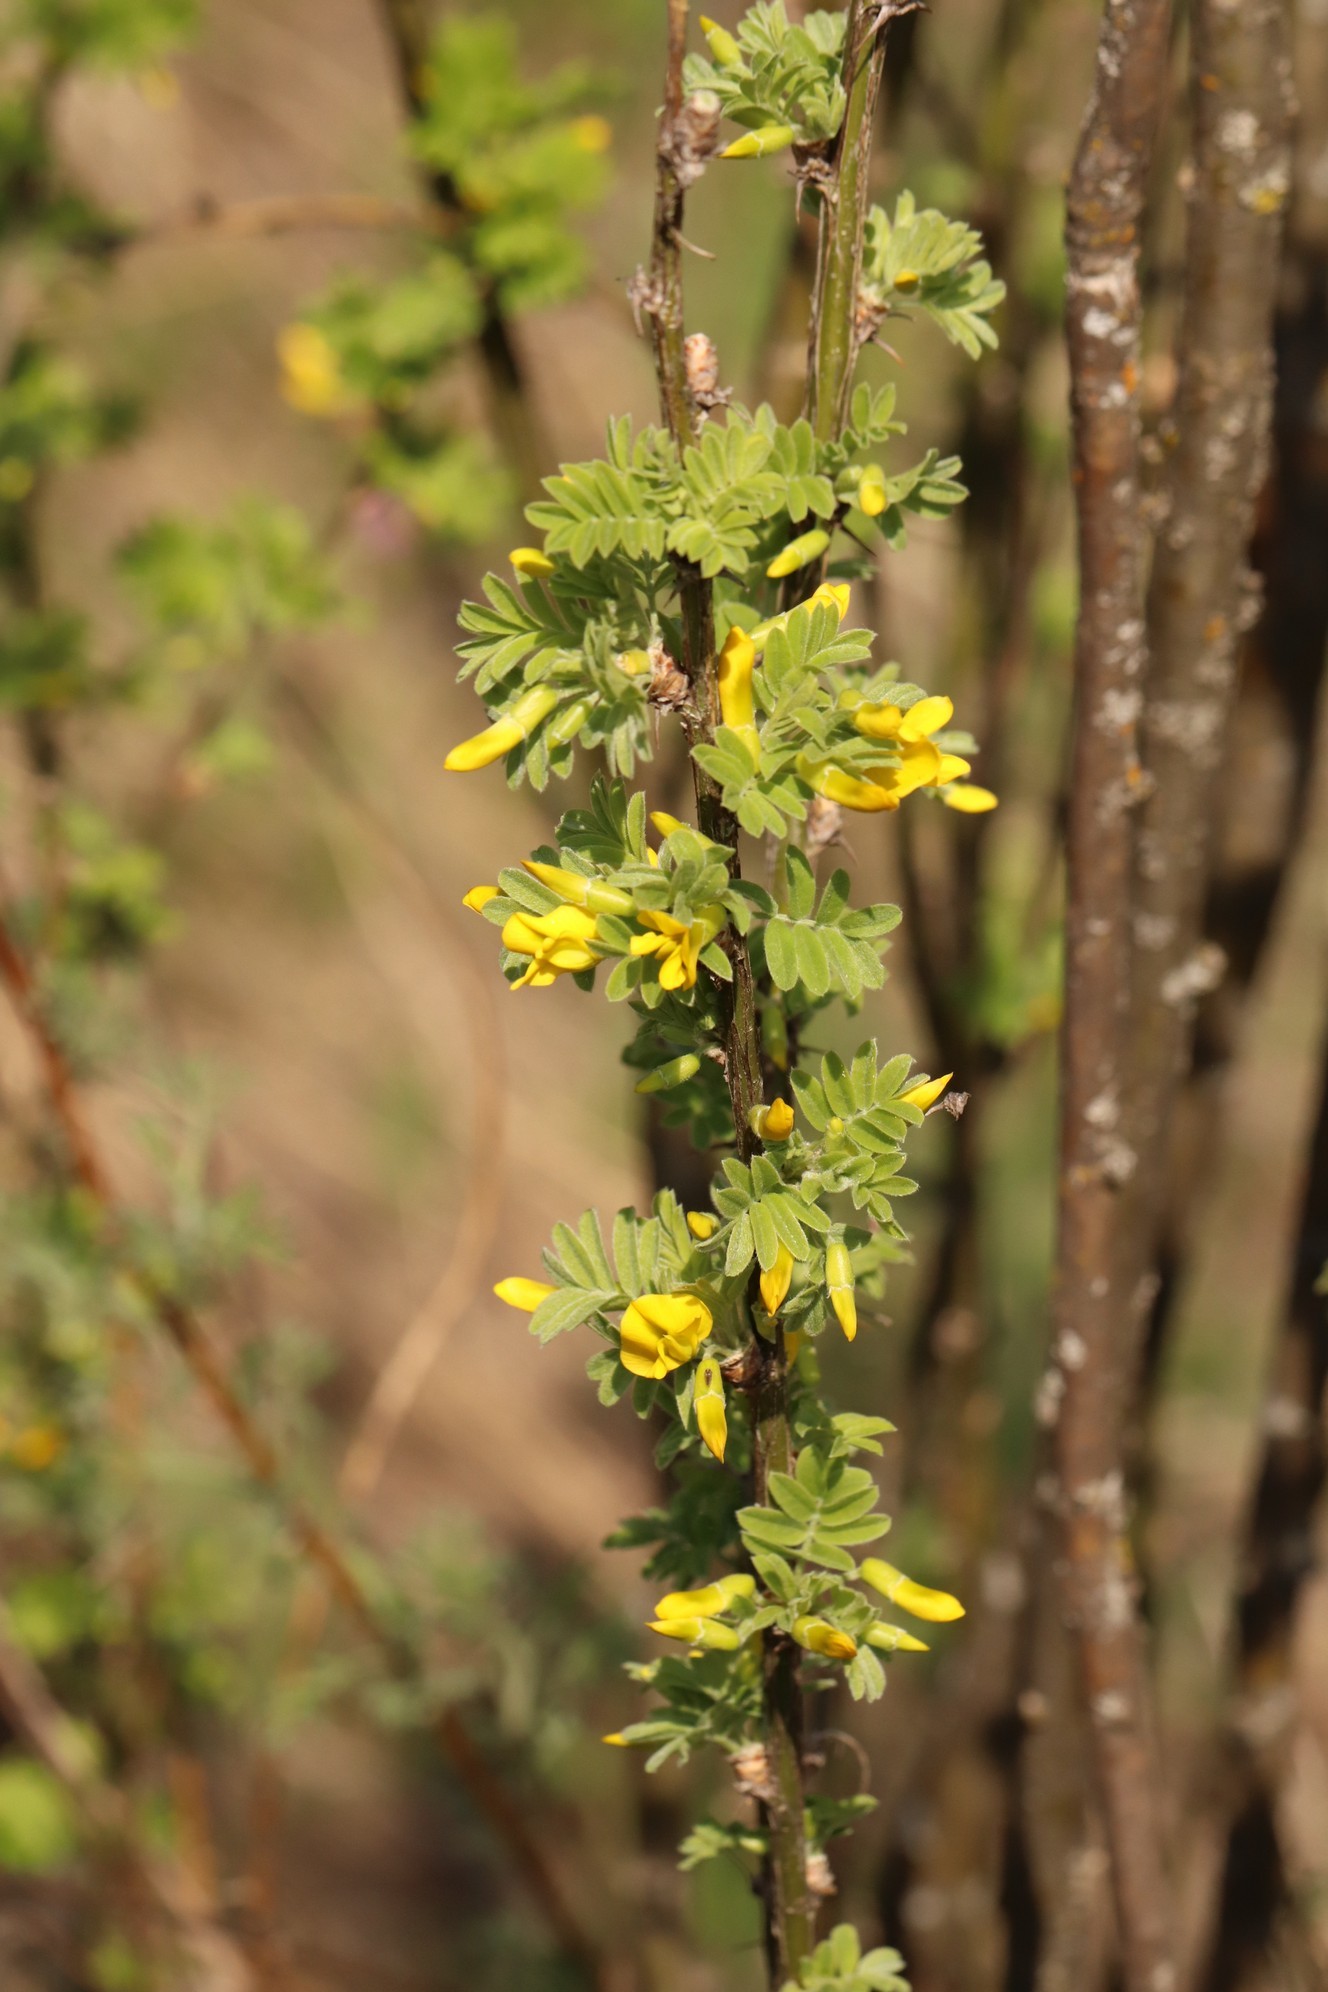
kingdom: Plantae
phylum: Tracheophyta
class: Magnoliopsida
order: Fabales
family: Fabaceae
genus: Caragana
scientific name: Caragana arborescens
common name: Siberian peashrub
